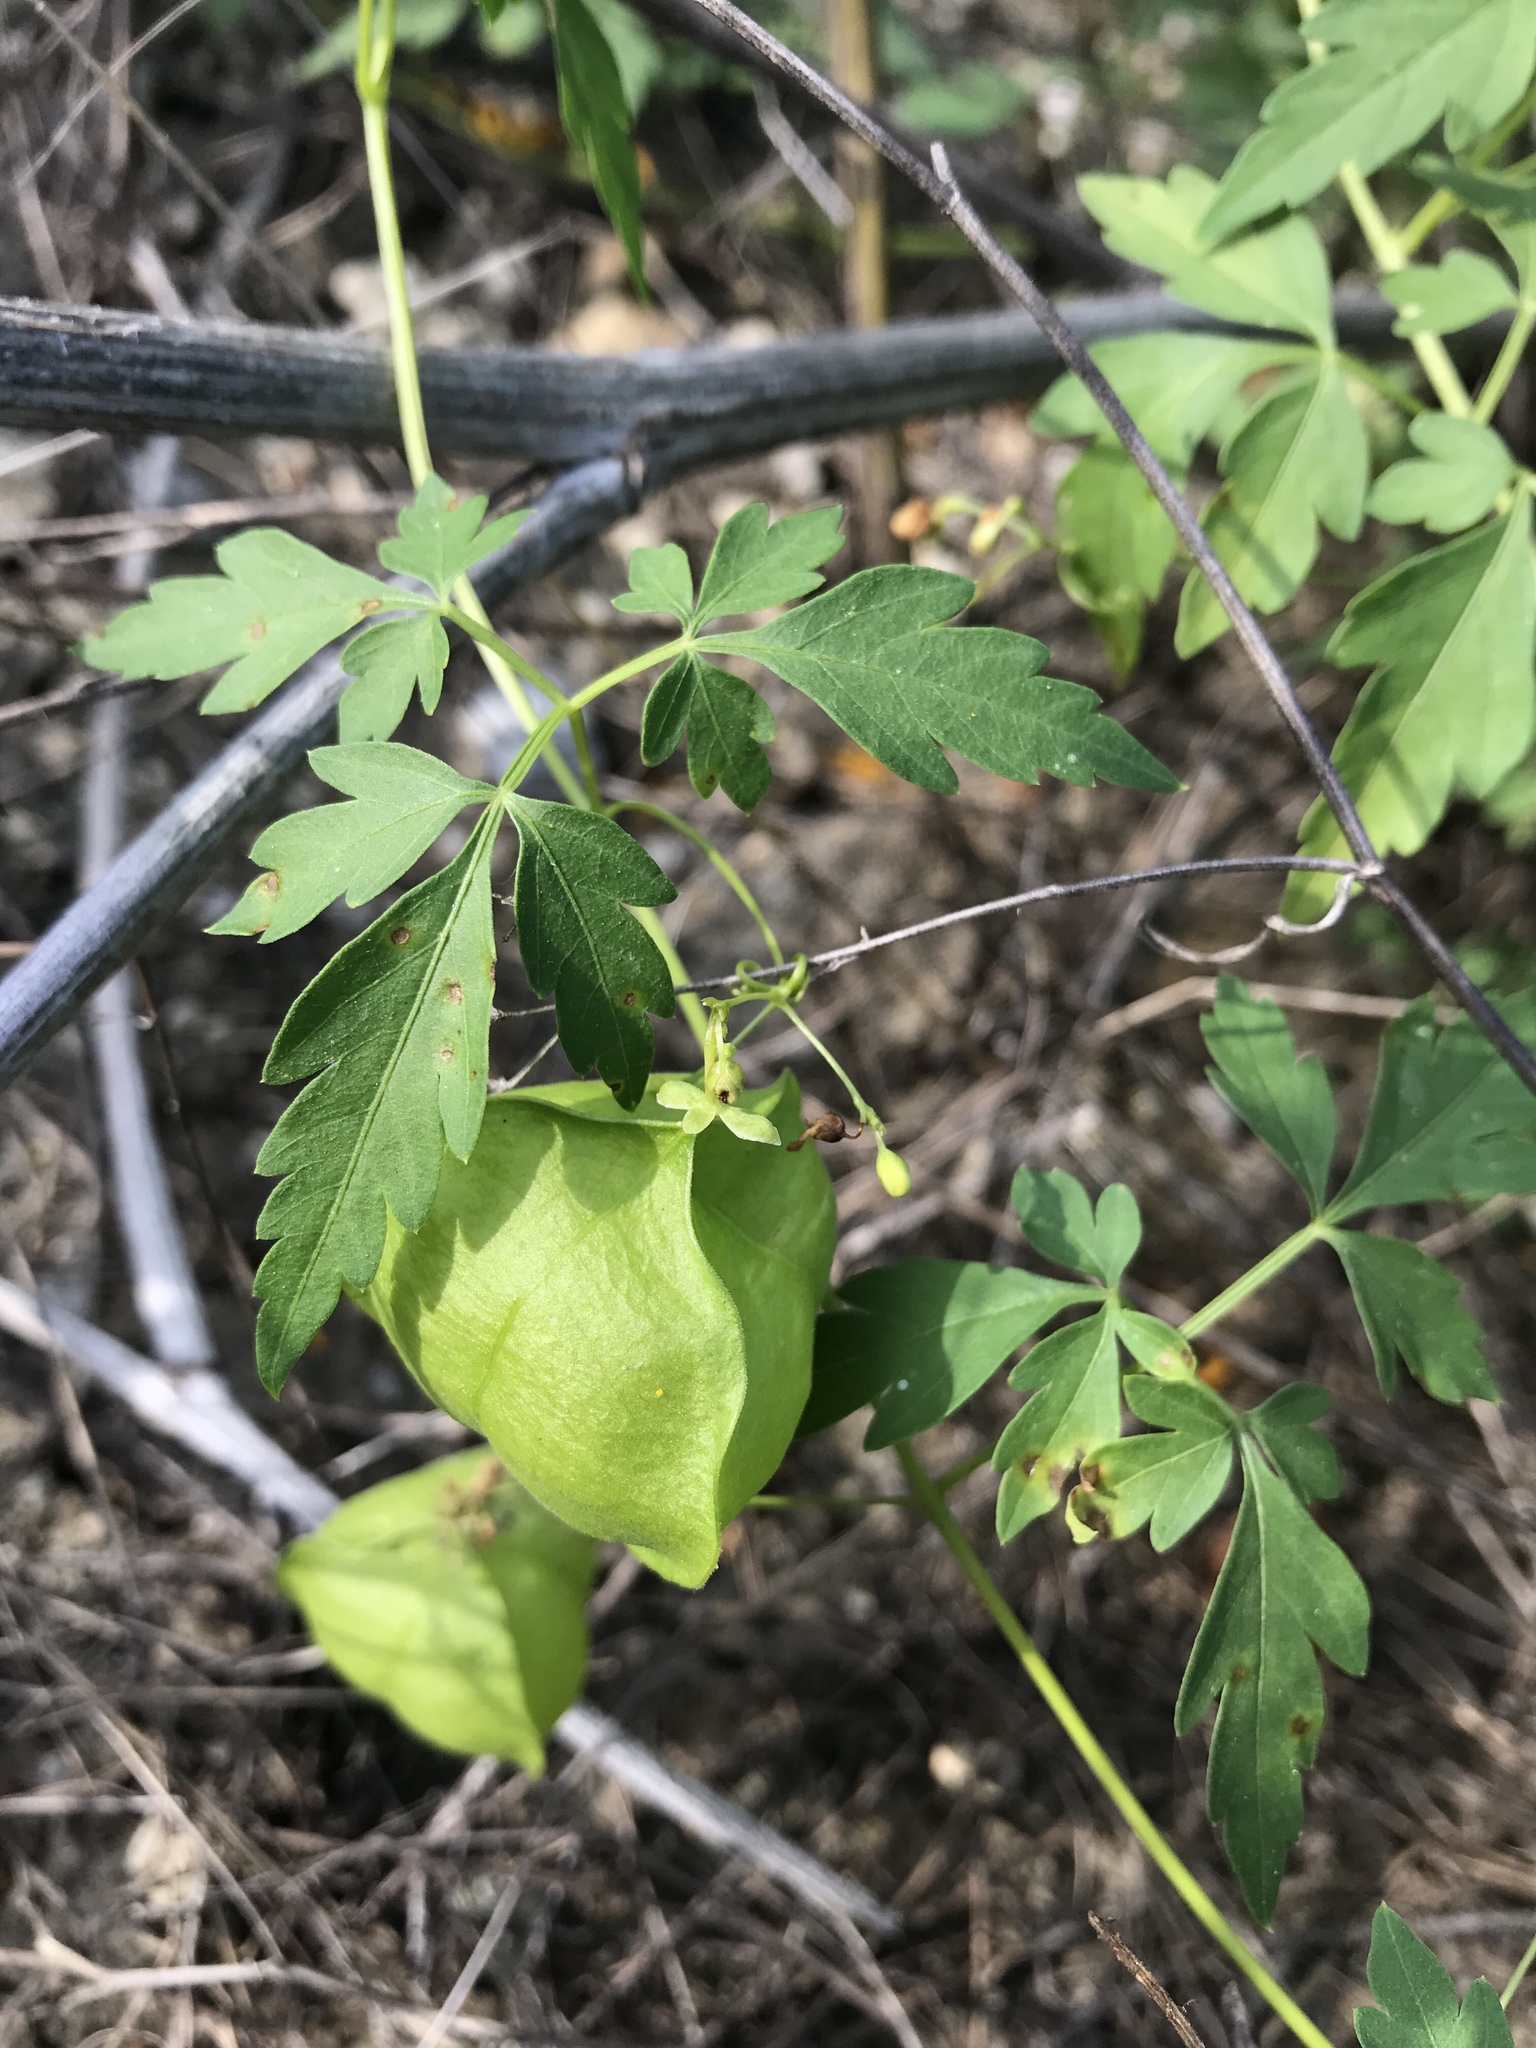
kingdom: Plantae
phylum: Tracheophyta
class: Magnoliopsida
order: Sapindales
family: Sapindaceae
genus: Cardiospermum
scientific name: Cardiospermum halicacabum
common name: Balloon vine
